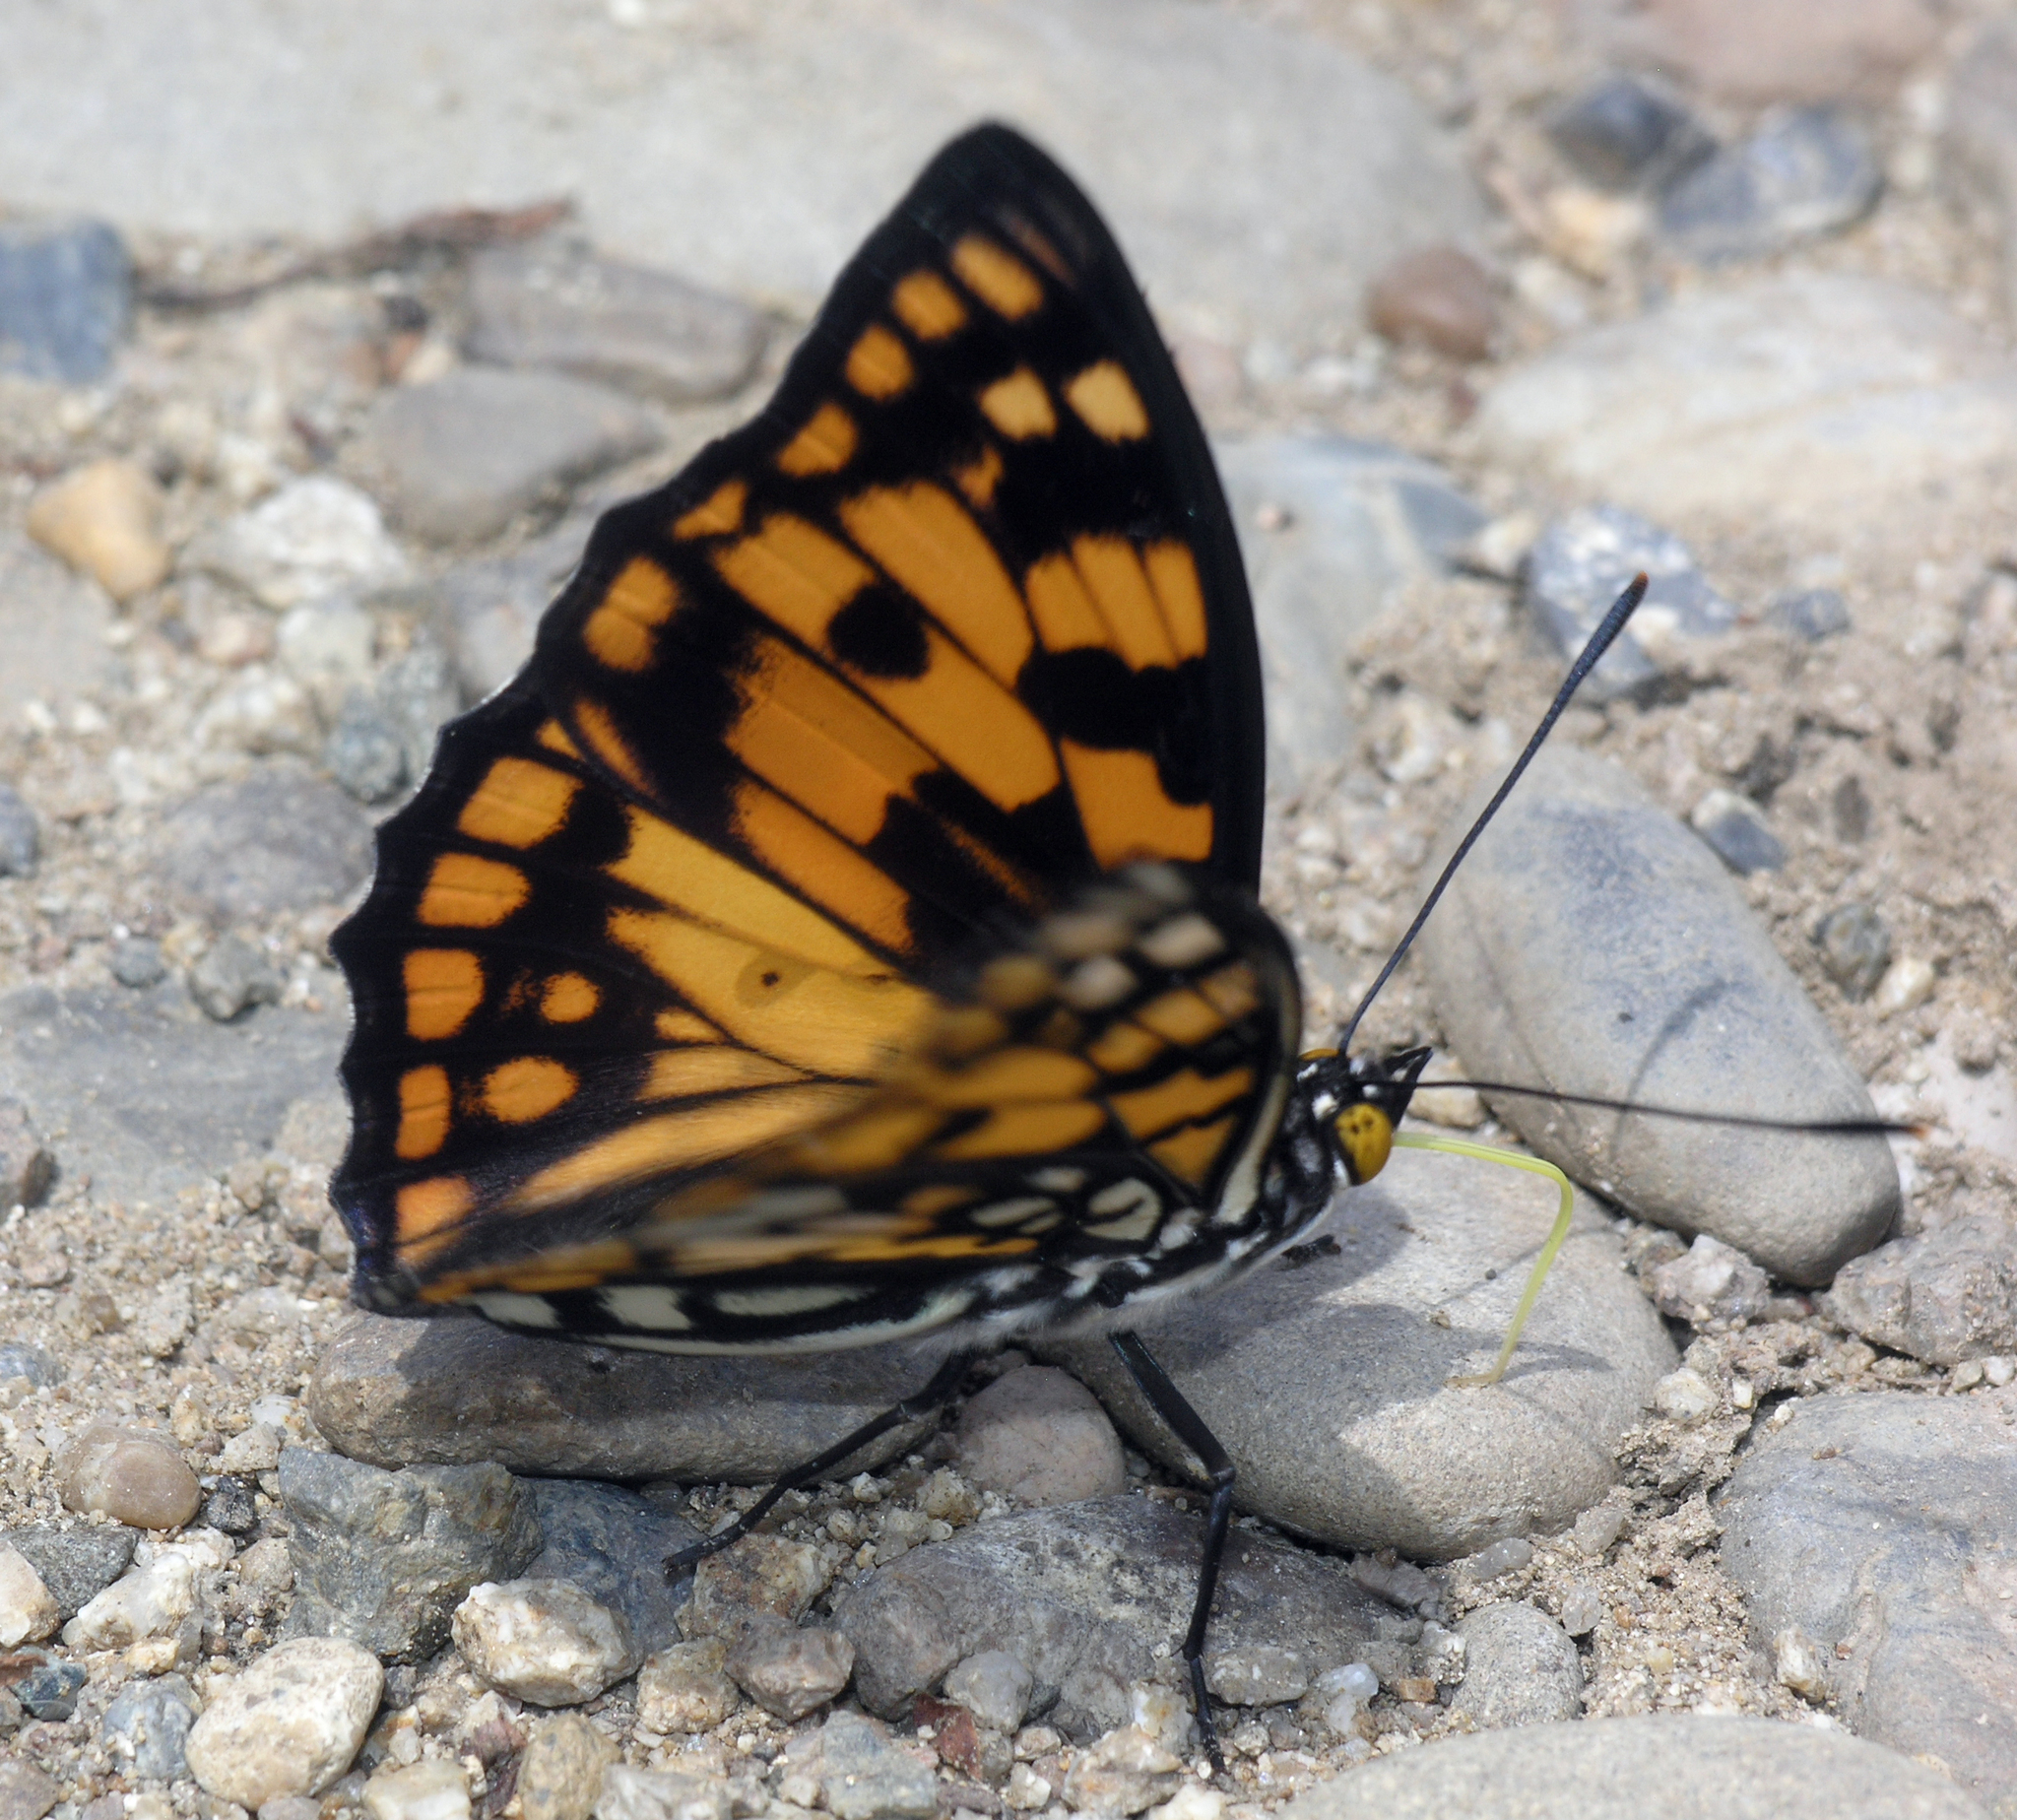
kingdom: Animalia
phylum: Arthropoda
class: Insecta
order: Lepidoptera
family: Nymphalidae
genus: Sephisa
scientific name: Sephisa dichroa
